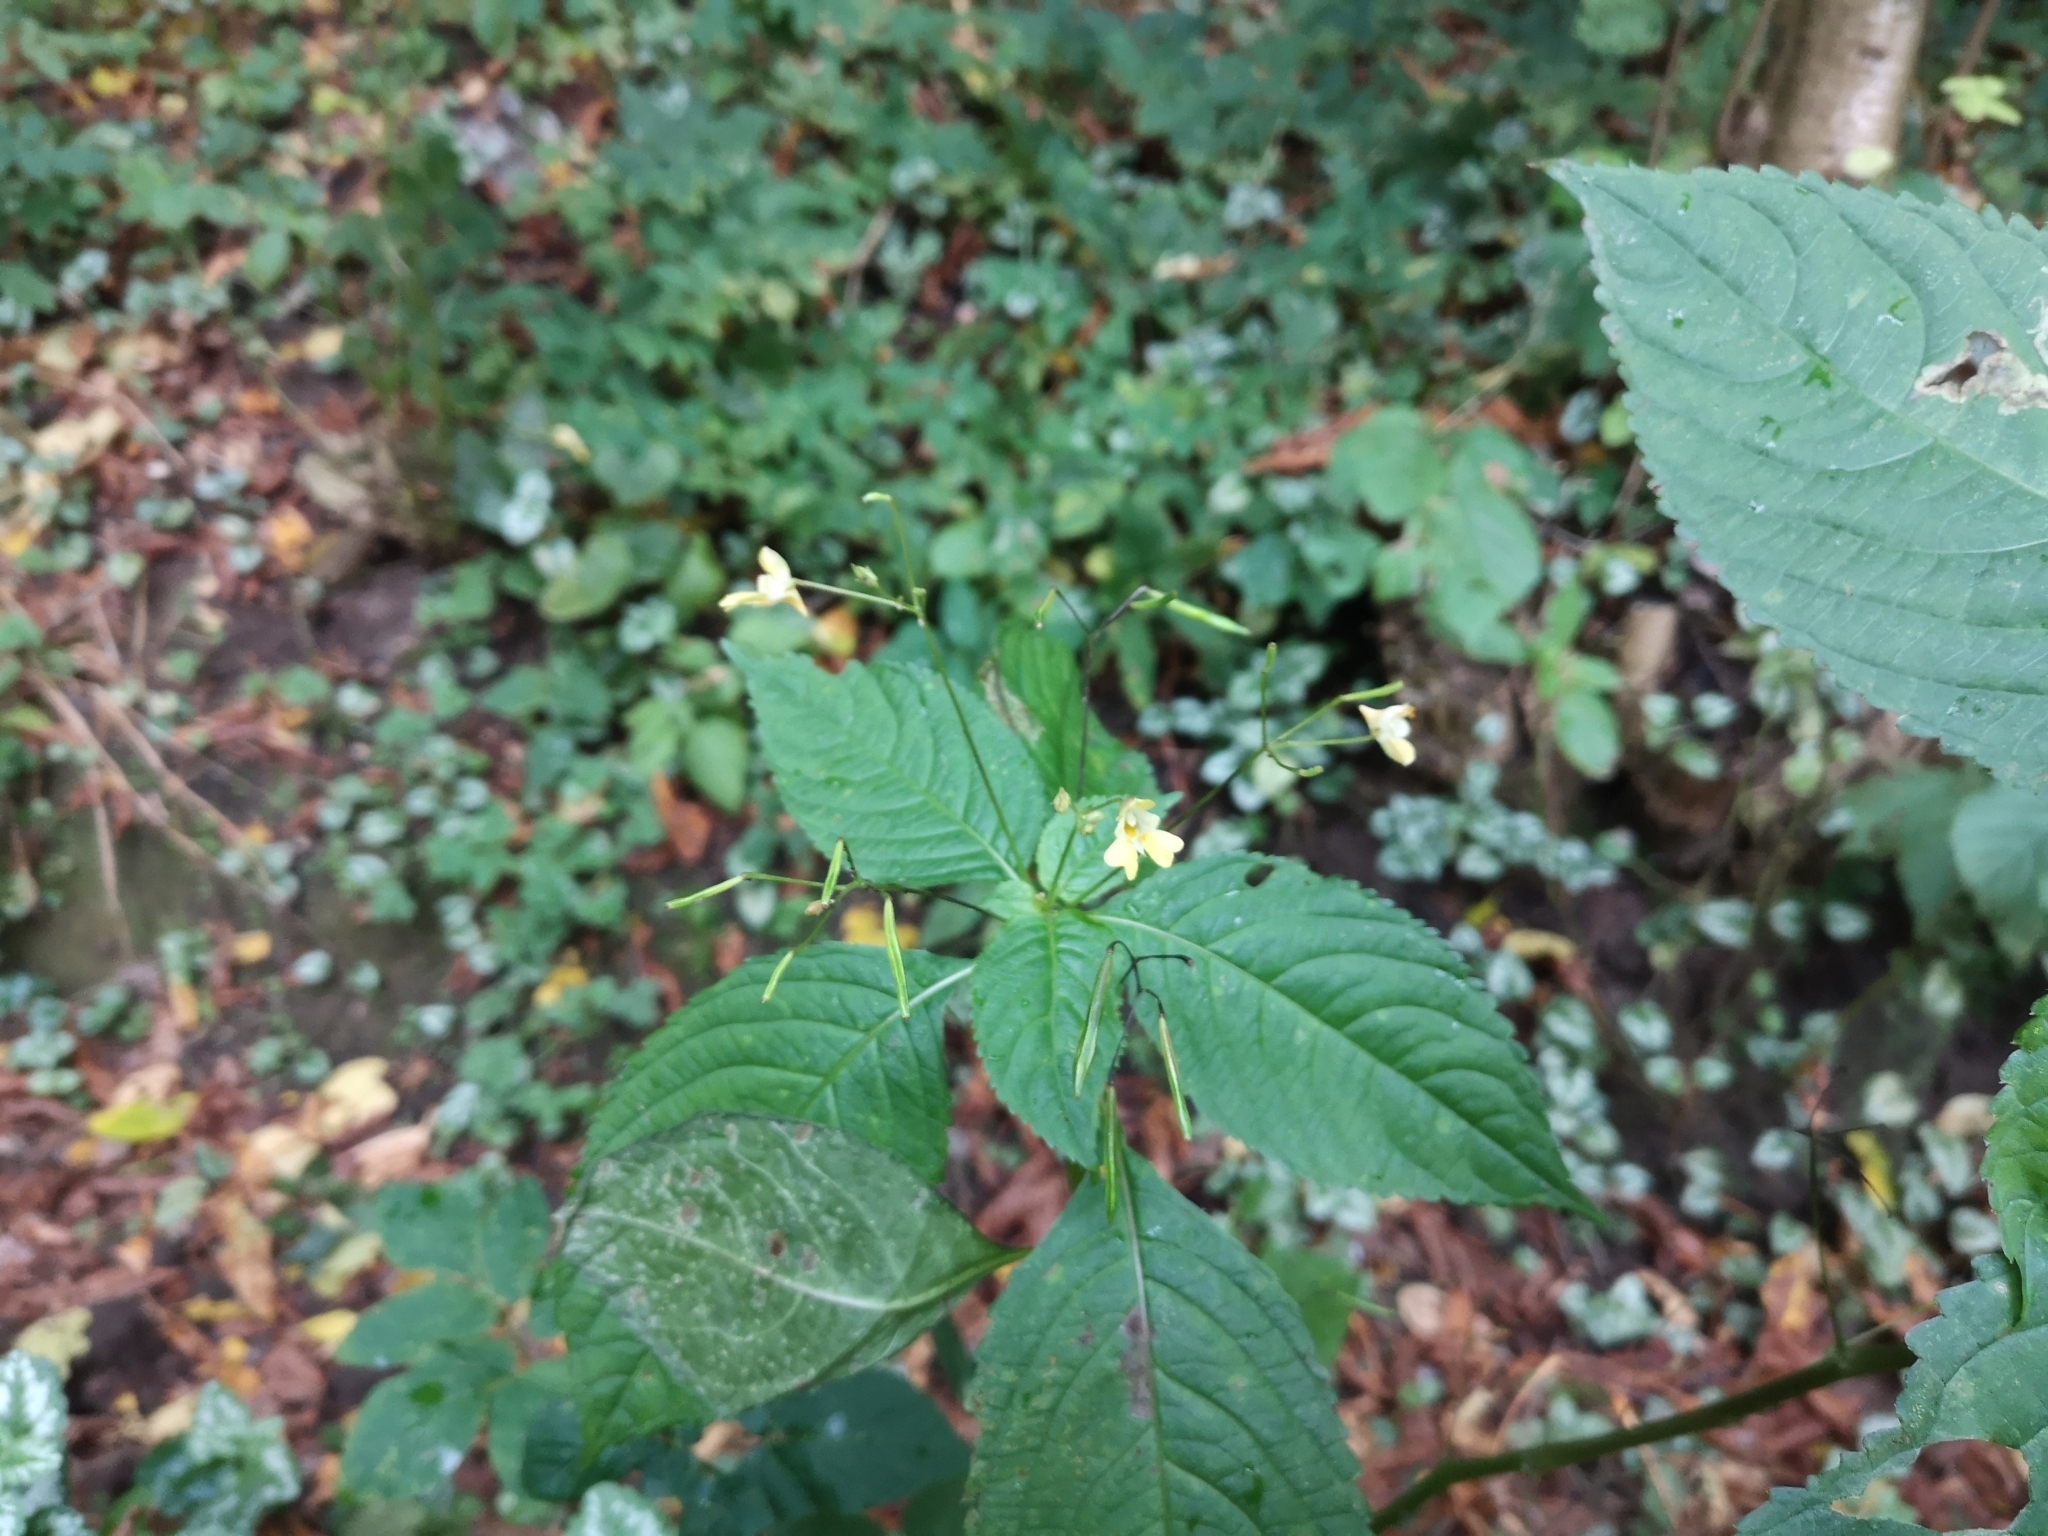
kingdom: Plantae
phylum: Tracheophyta
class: Magnoliopsida
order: Ericales
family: Balsaminaceae
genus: Impatiens
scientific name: Impatiens parviflora
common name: Small balsam
